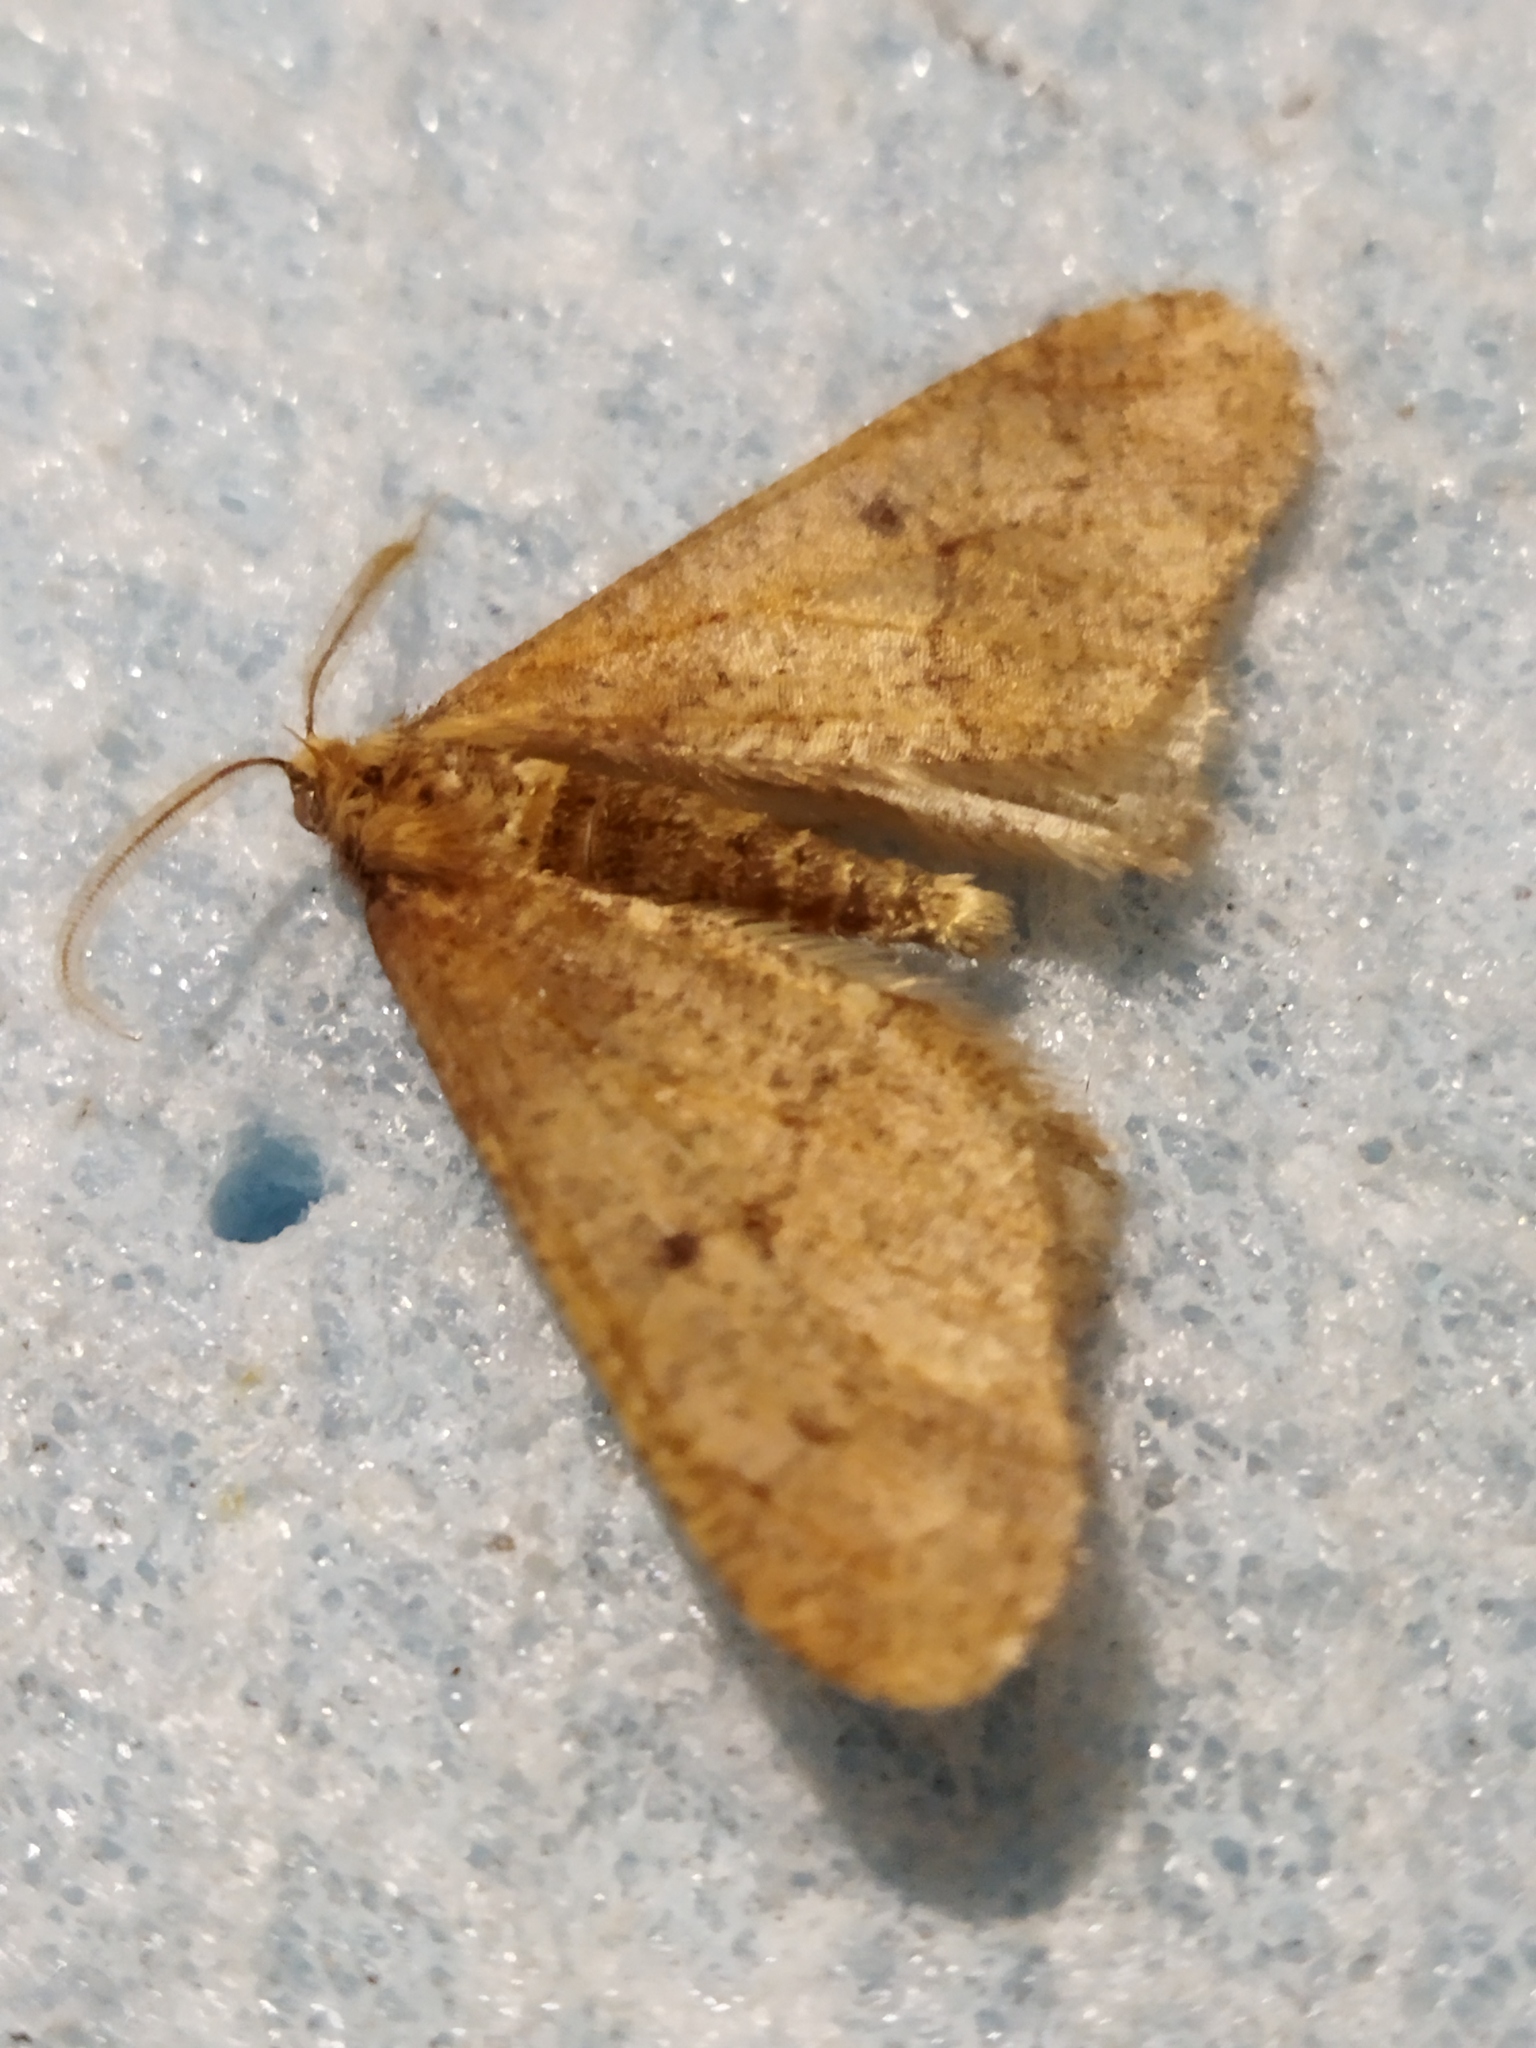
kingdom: Animalia
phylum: Arthropoda
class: Insecta
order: Lepidoptera
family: Geometridae
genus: Erannis
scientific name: Erannis defoliaria
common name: Mottled umber
